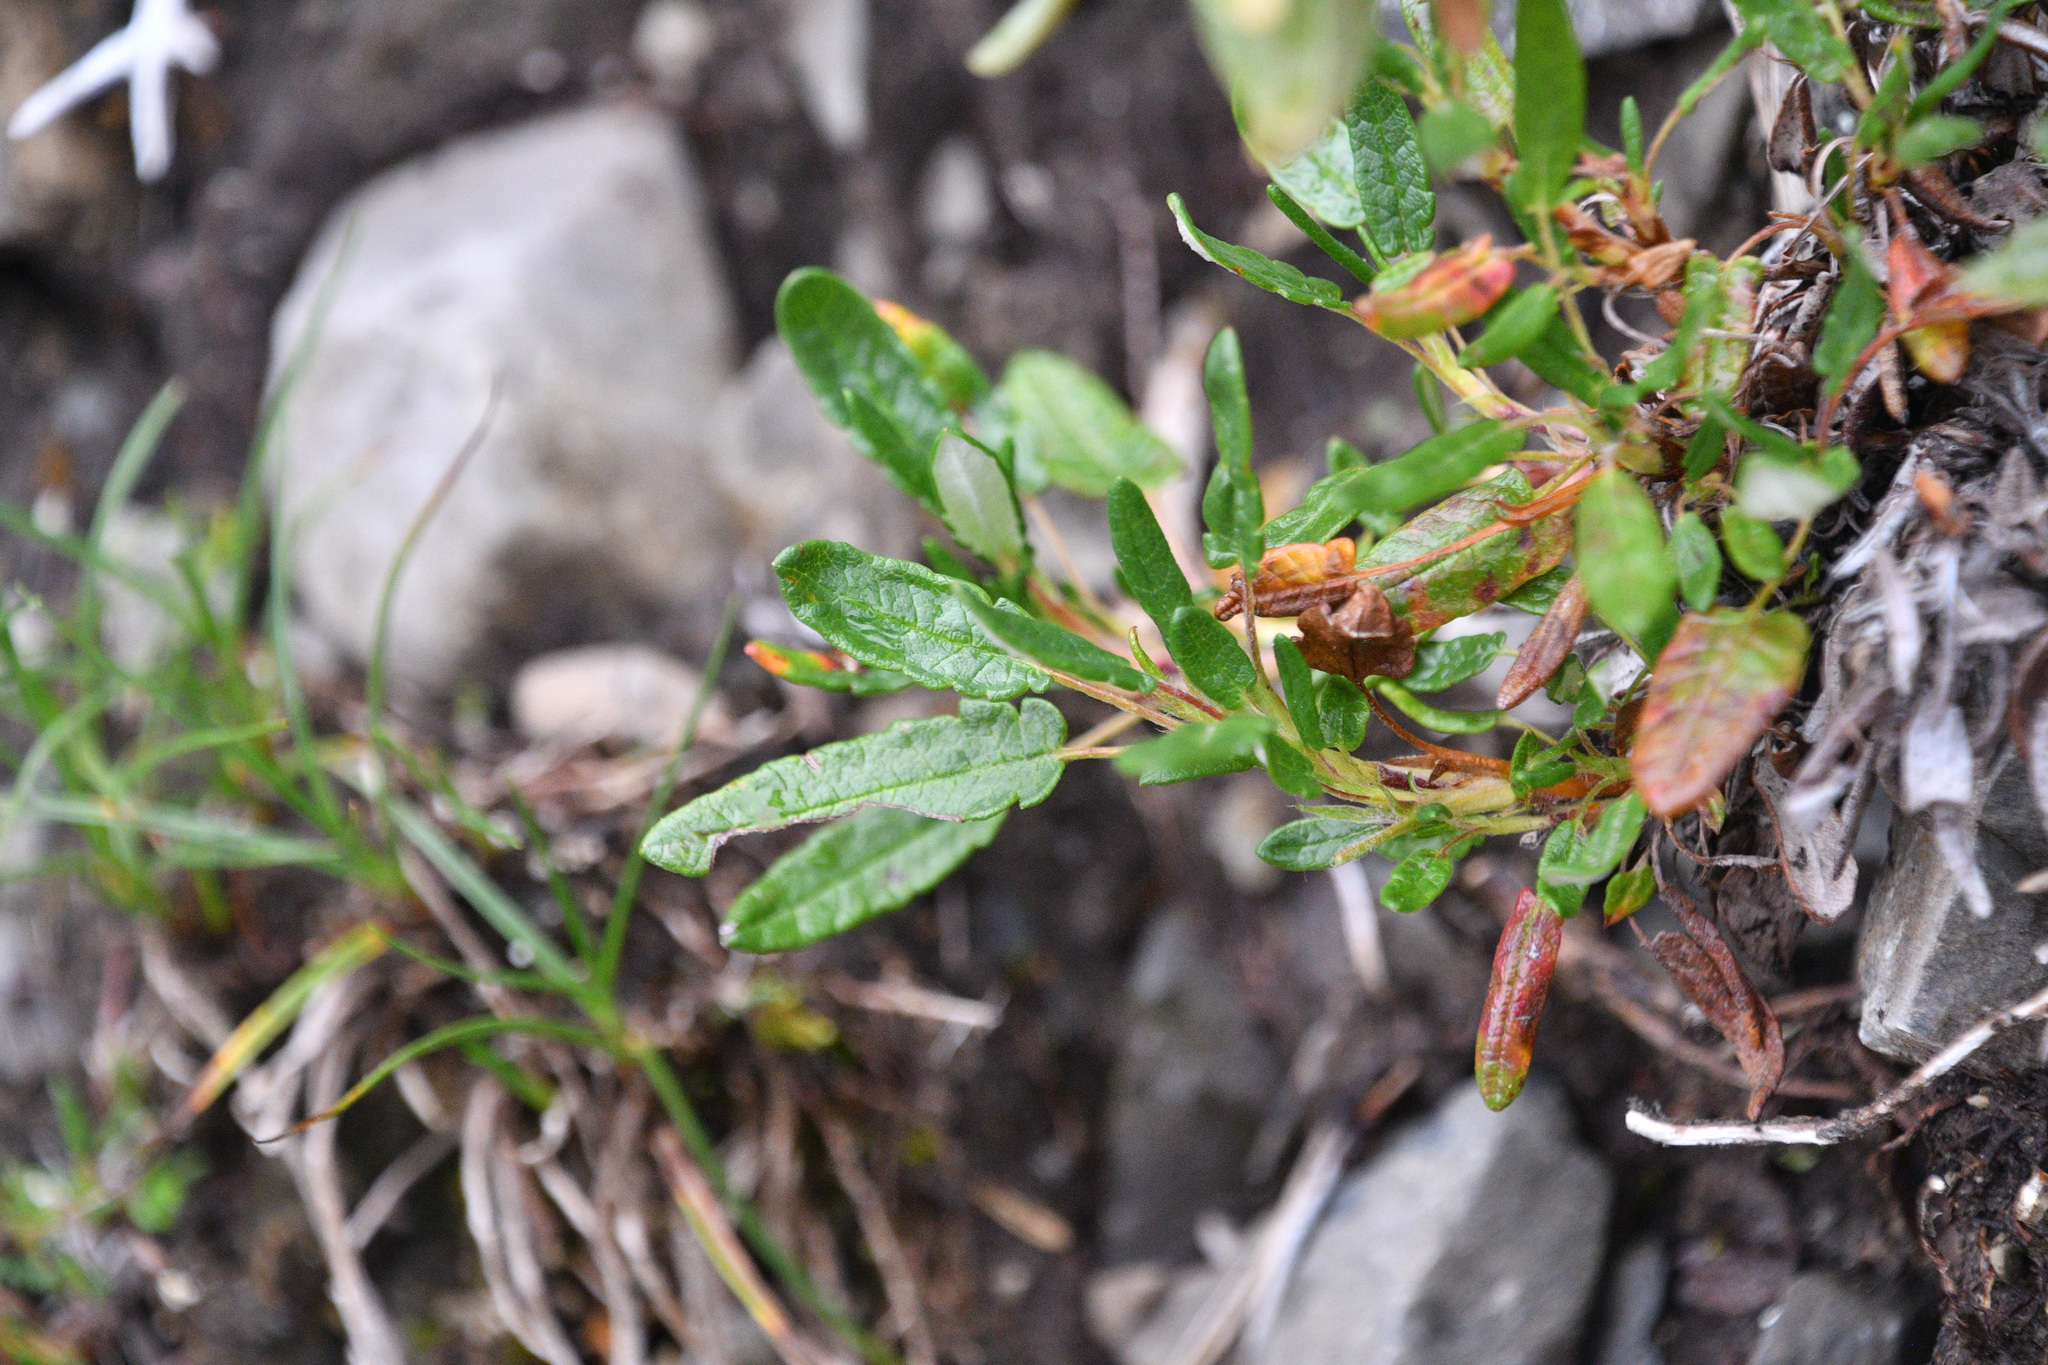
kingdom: Plantae
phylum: Tracheophyta
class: Magnoliopsida
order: Rosales
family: Rosaceae
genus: Dryas
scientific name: Dryas integrifolia
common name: Entire-leaved mountain avens
